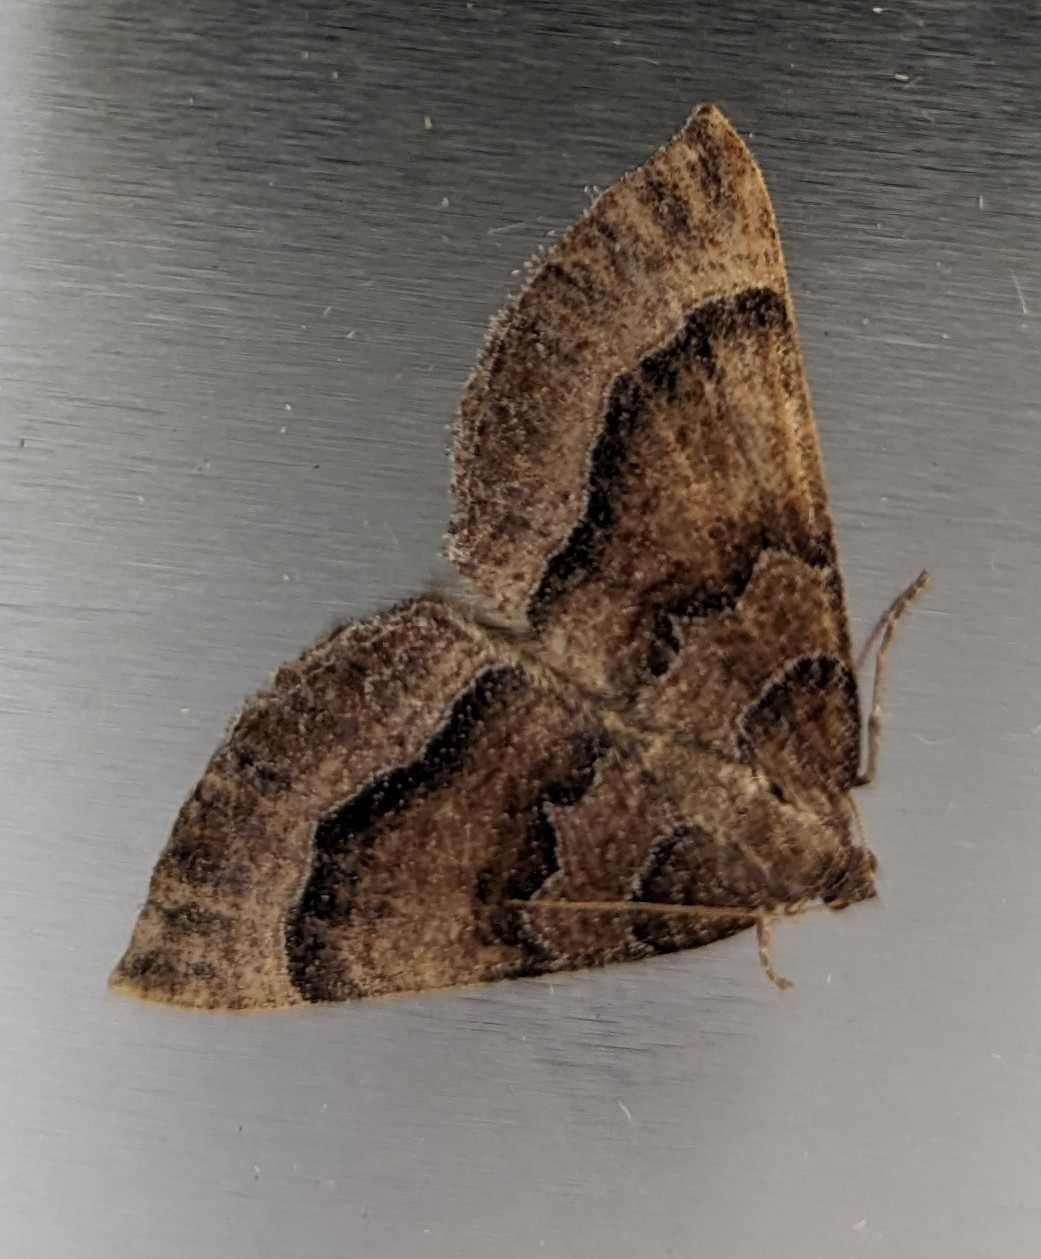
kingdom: Animalia
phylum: Arthropoda
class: Insecta
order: Lepidoptera
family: Geometridae
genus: Larentia
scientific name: Larentia clavaria
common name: Mallow
